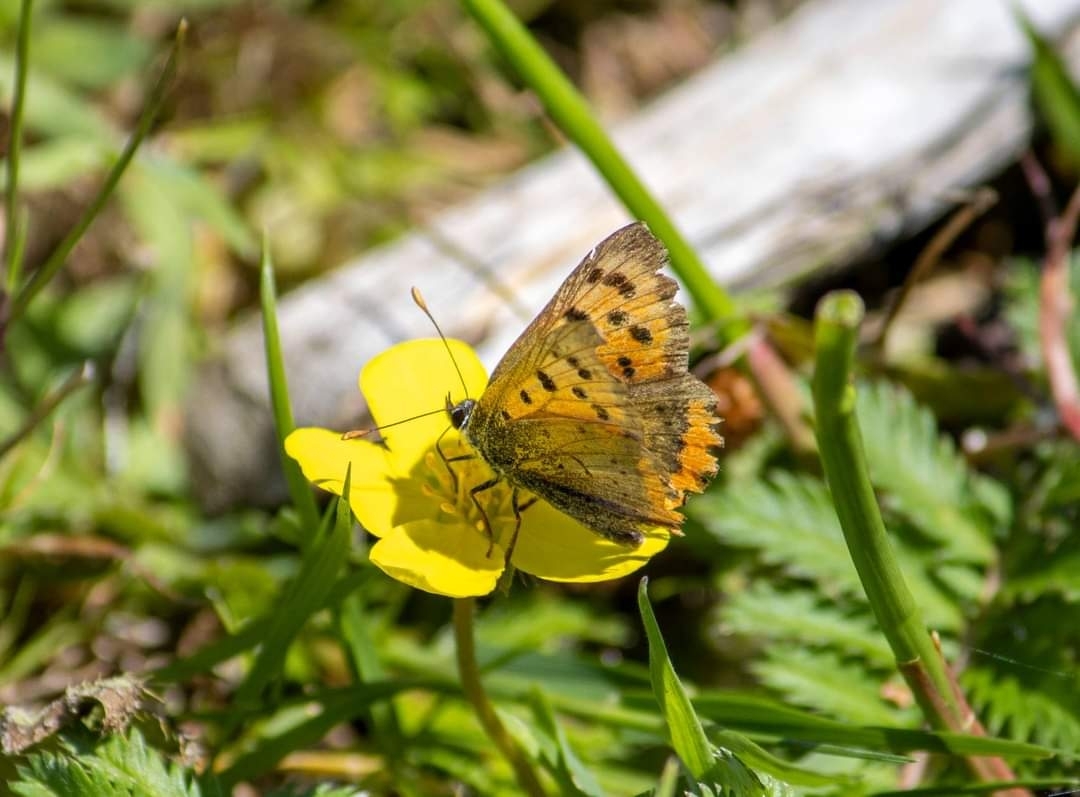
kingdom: Animalia
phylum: Arthropoda
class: Insecta
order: Lepidoptera
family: Lycaenidae
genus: Lycaena
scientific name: Lycaena phlaeas
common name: Small copper
